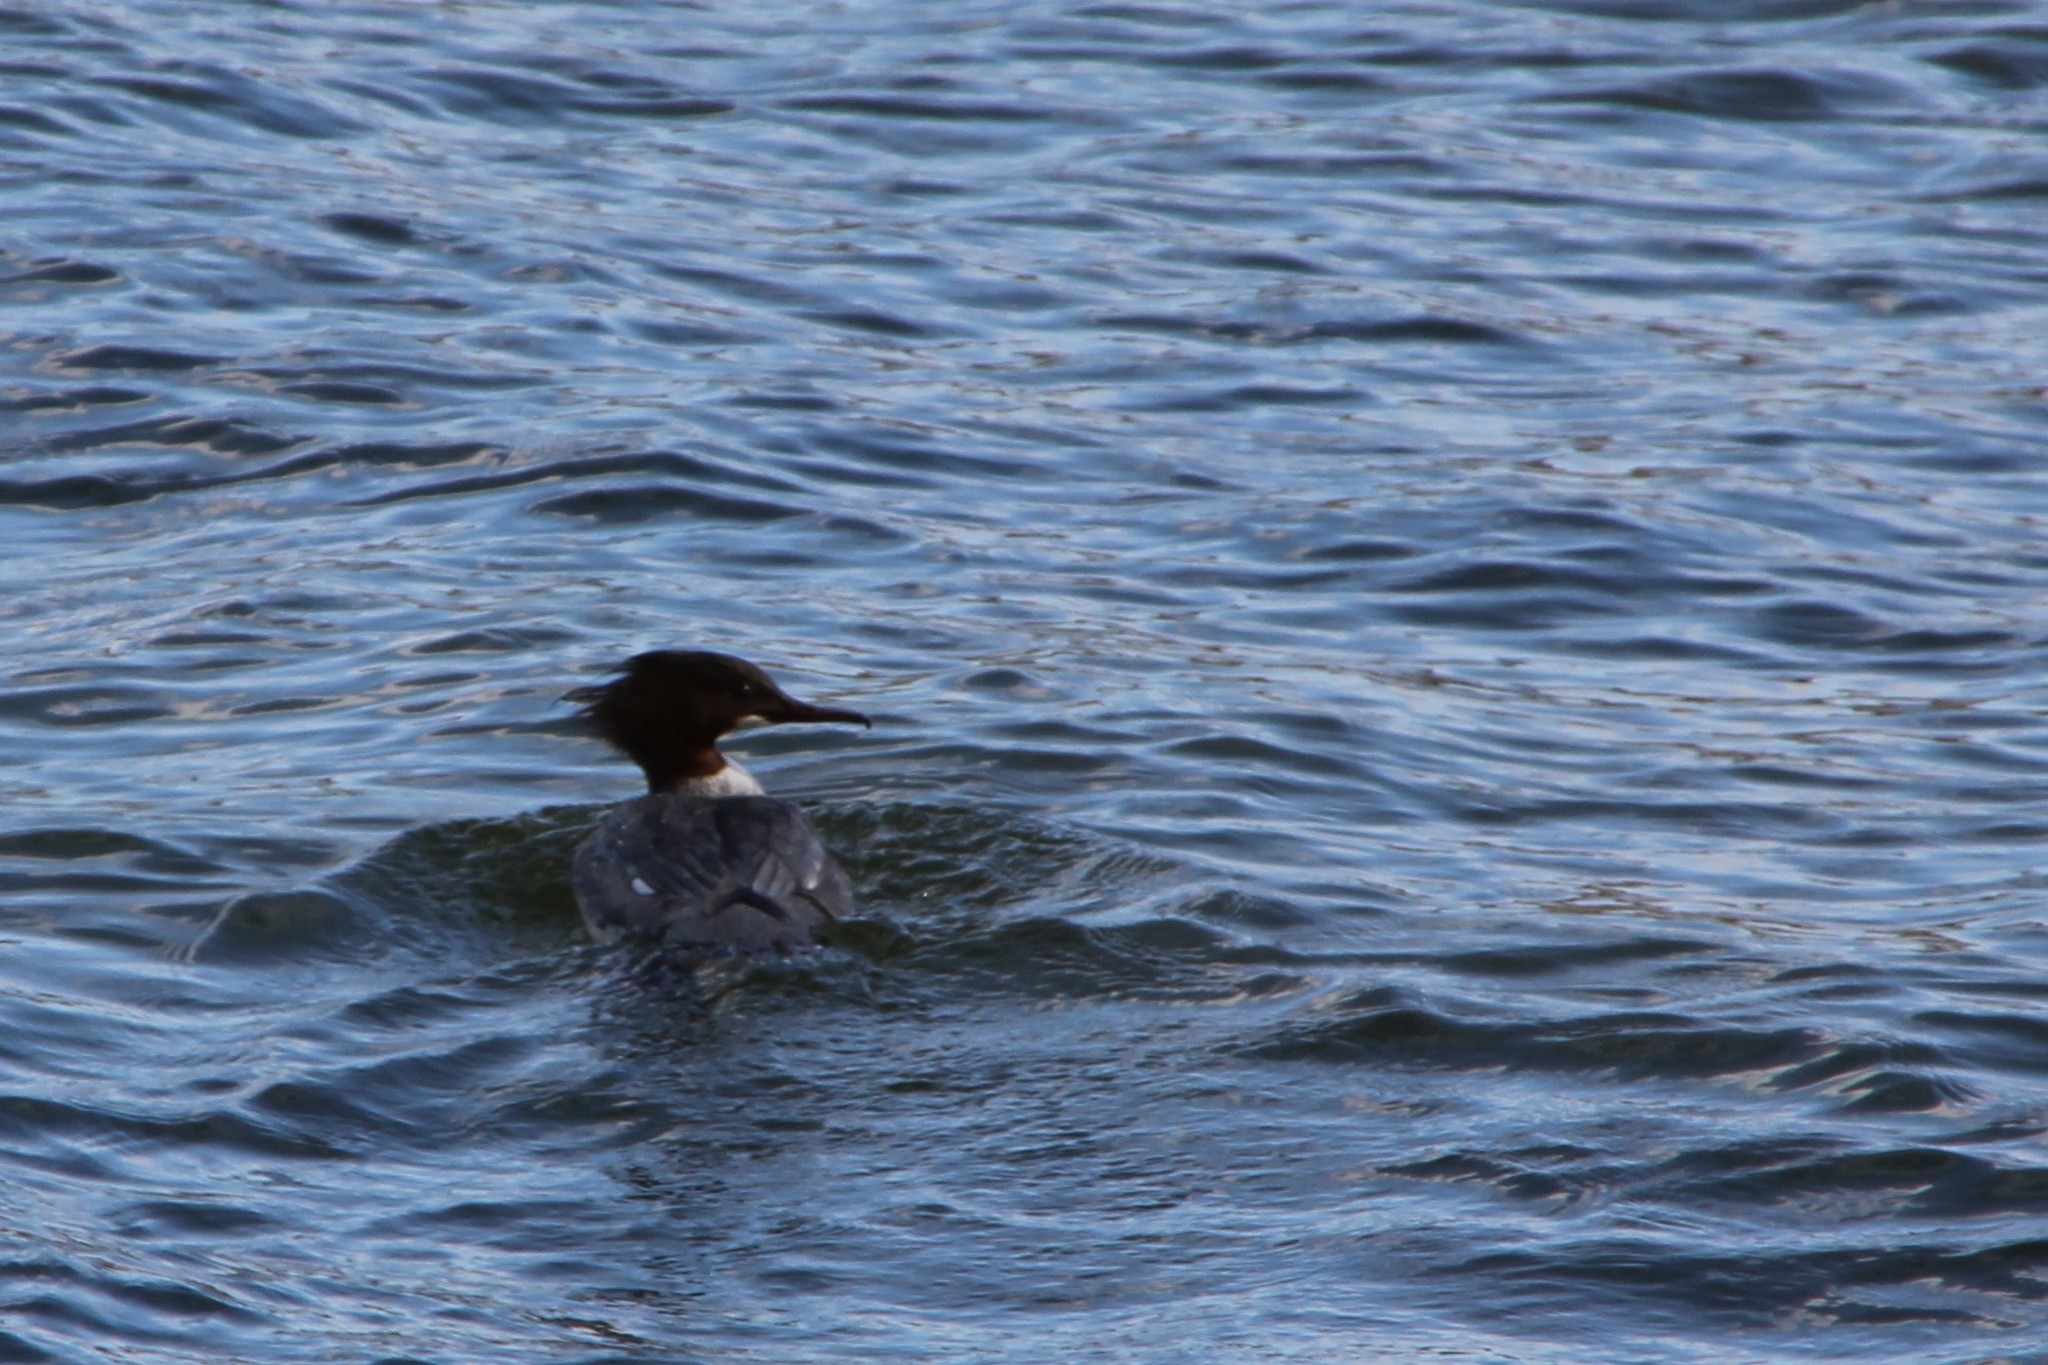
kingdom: Animalia
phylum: Chordata
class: Aves
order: Anseriformes
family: Anatidae
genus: Mergus
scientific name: Mergus merganser
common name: Common merganser
